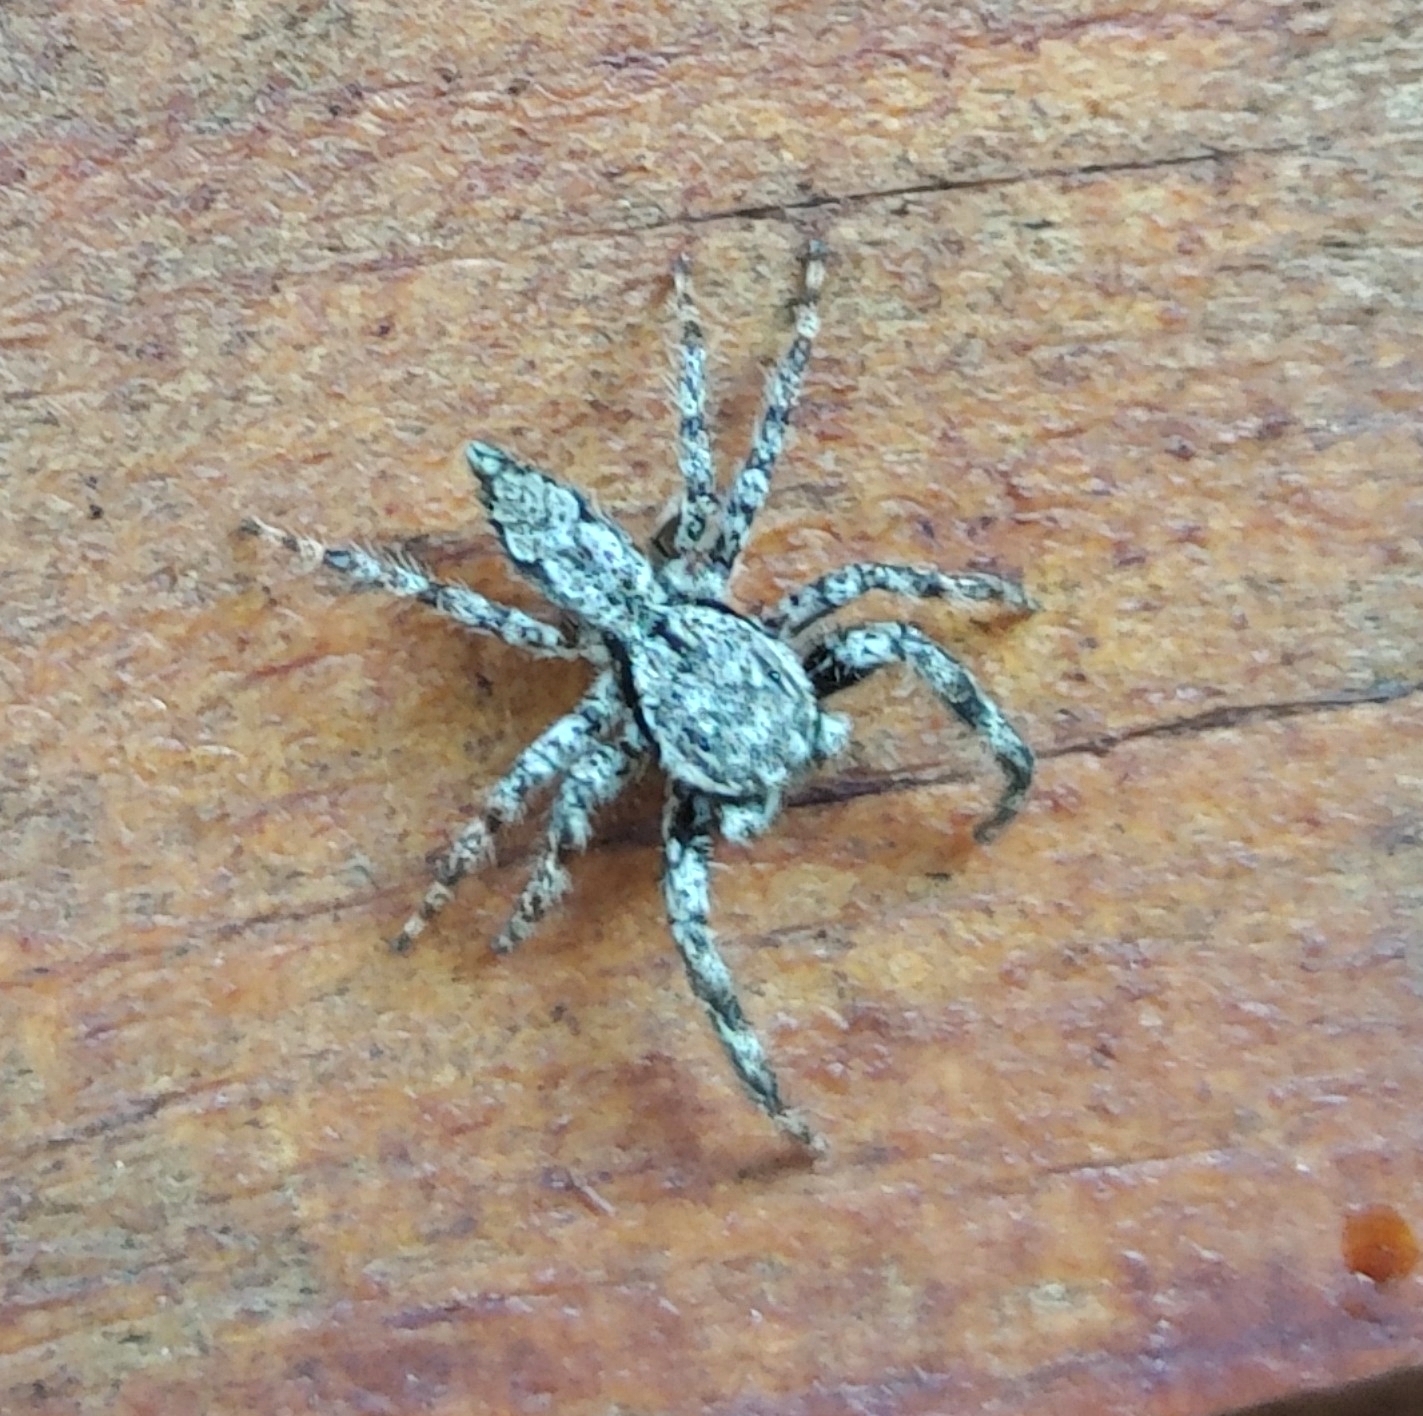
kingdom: Animalia
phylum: Arthropoda
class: Arachnida
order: Araneae
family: Salticidae
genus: Platycryptus
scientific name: Platycryptus undatus
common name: Tan jumping spider
